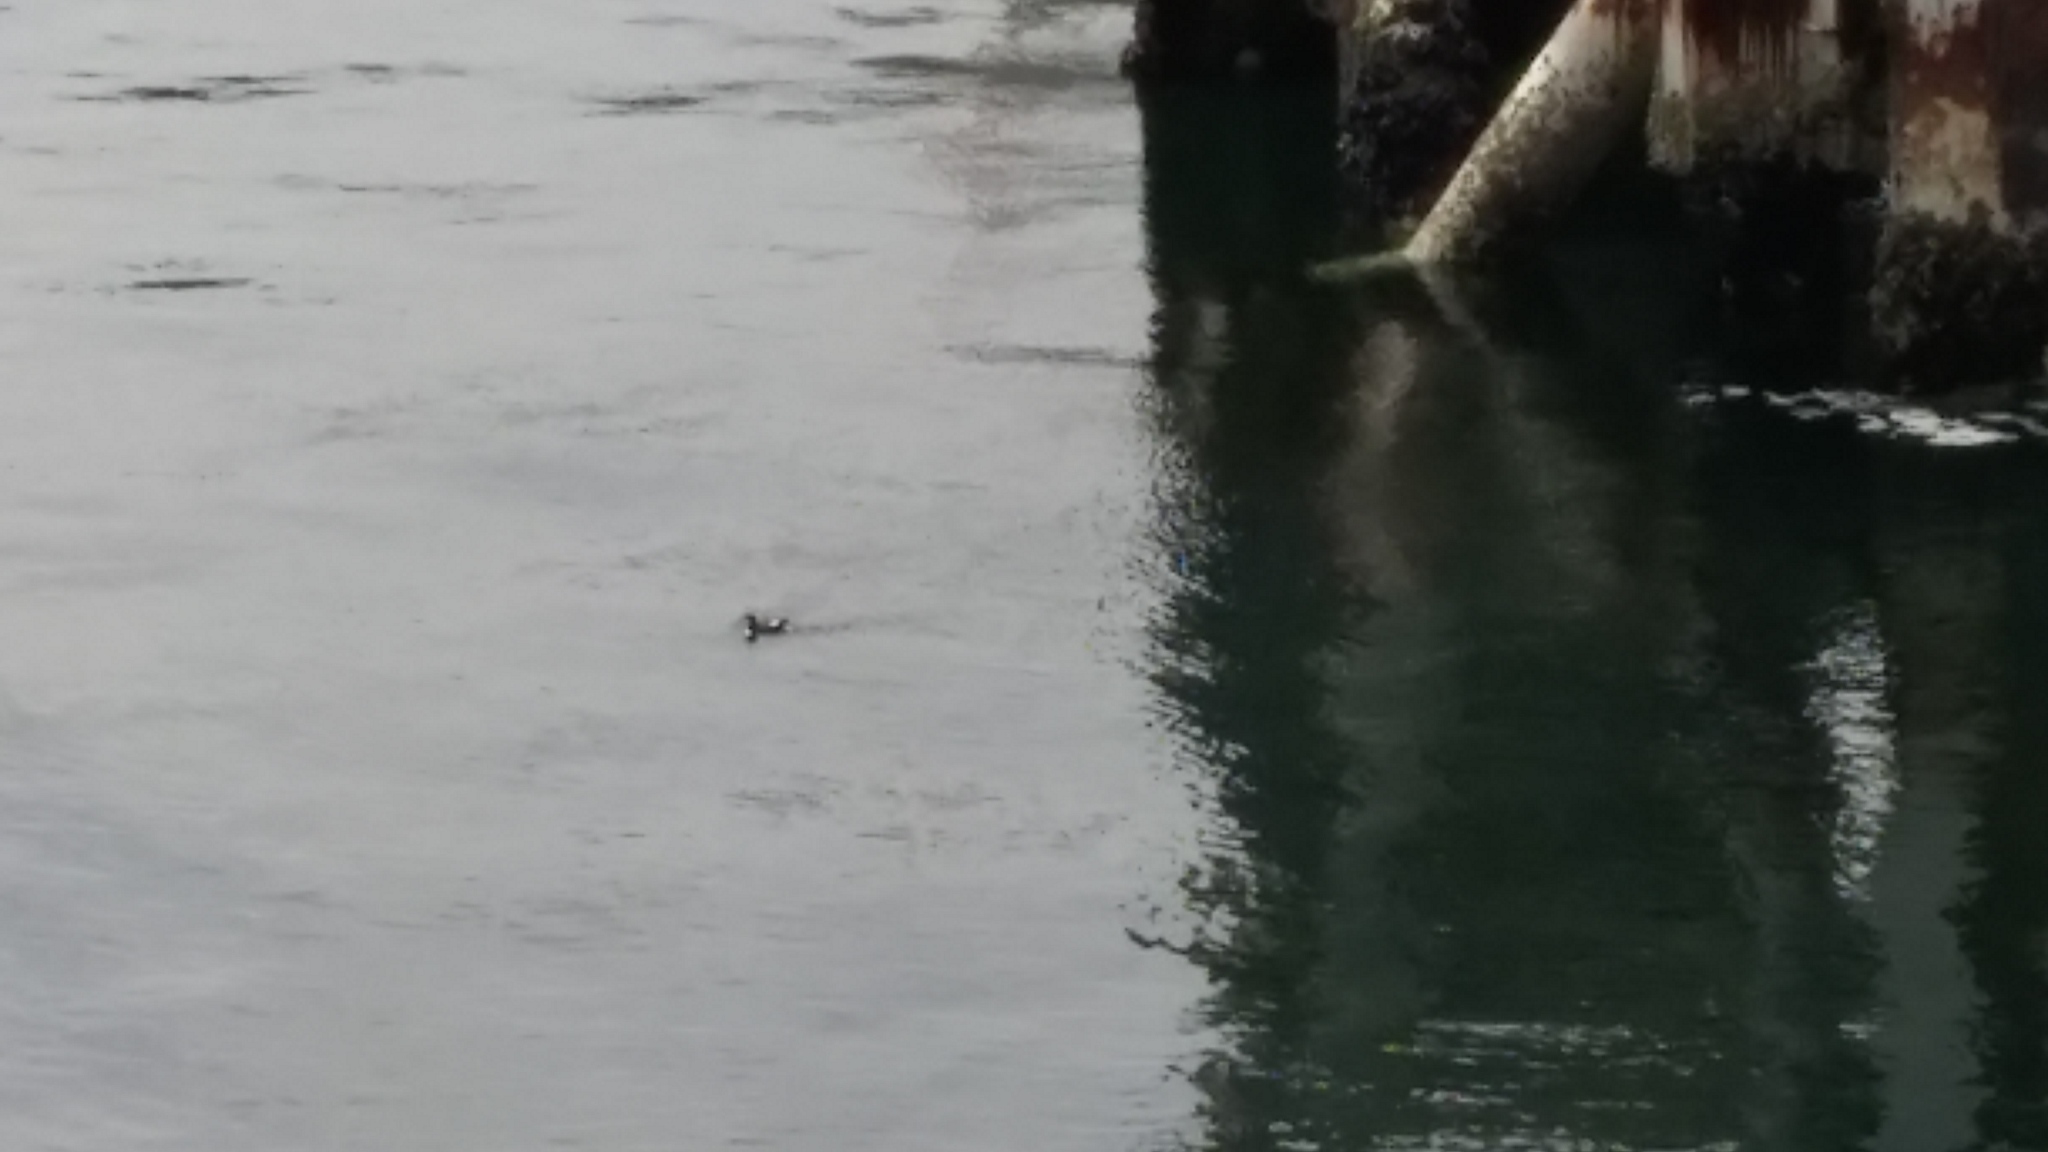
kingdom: Animalia
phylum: Chordata
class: Aves
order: Charadriiformes
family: Alcidae
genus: Cepphus
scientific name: Cepphus columba
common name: Pigeon guillemot
